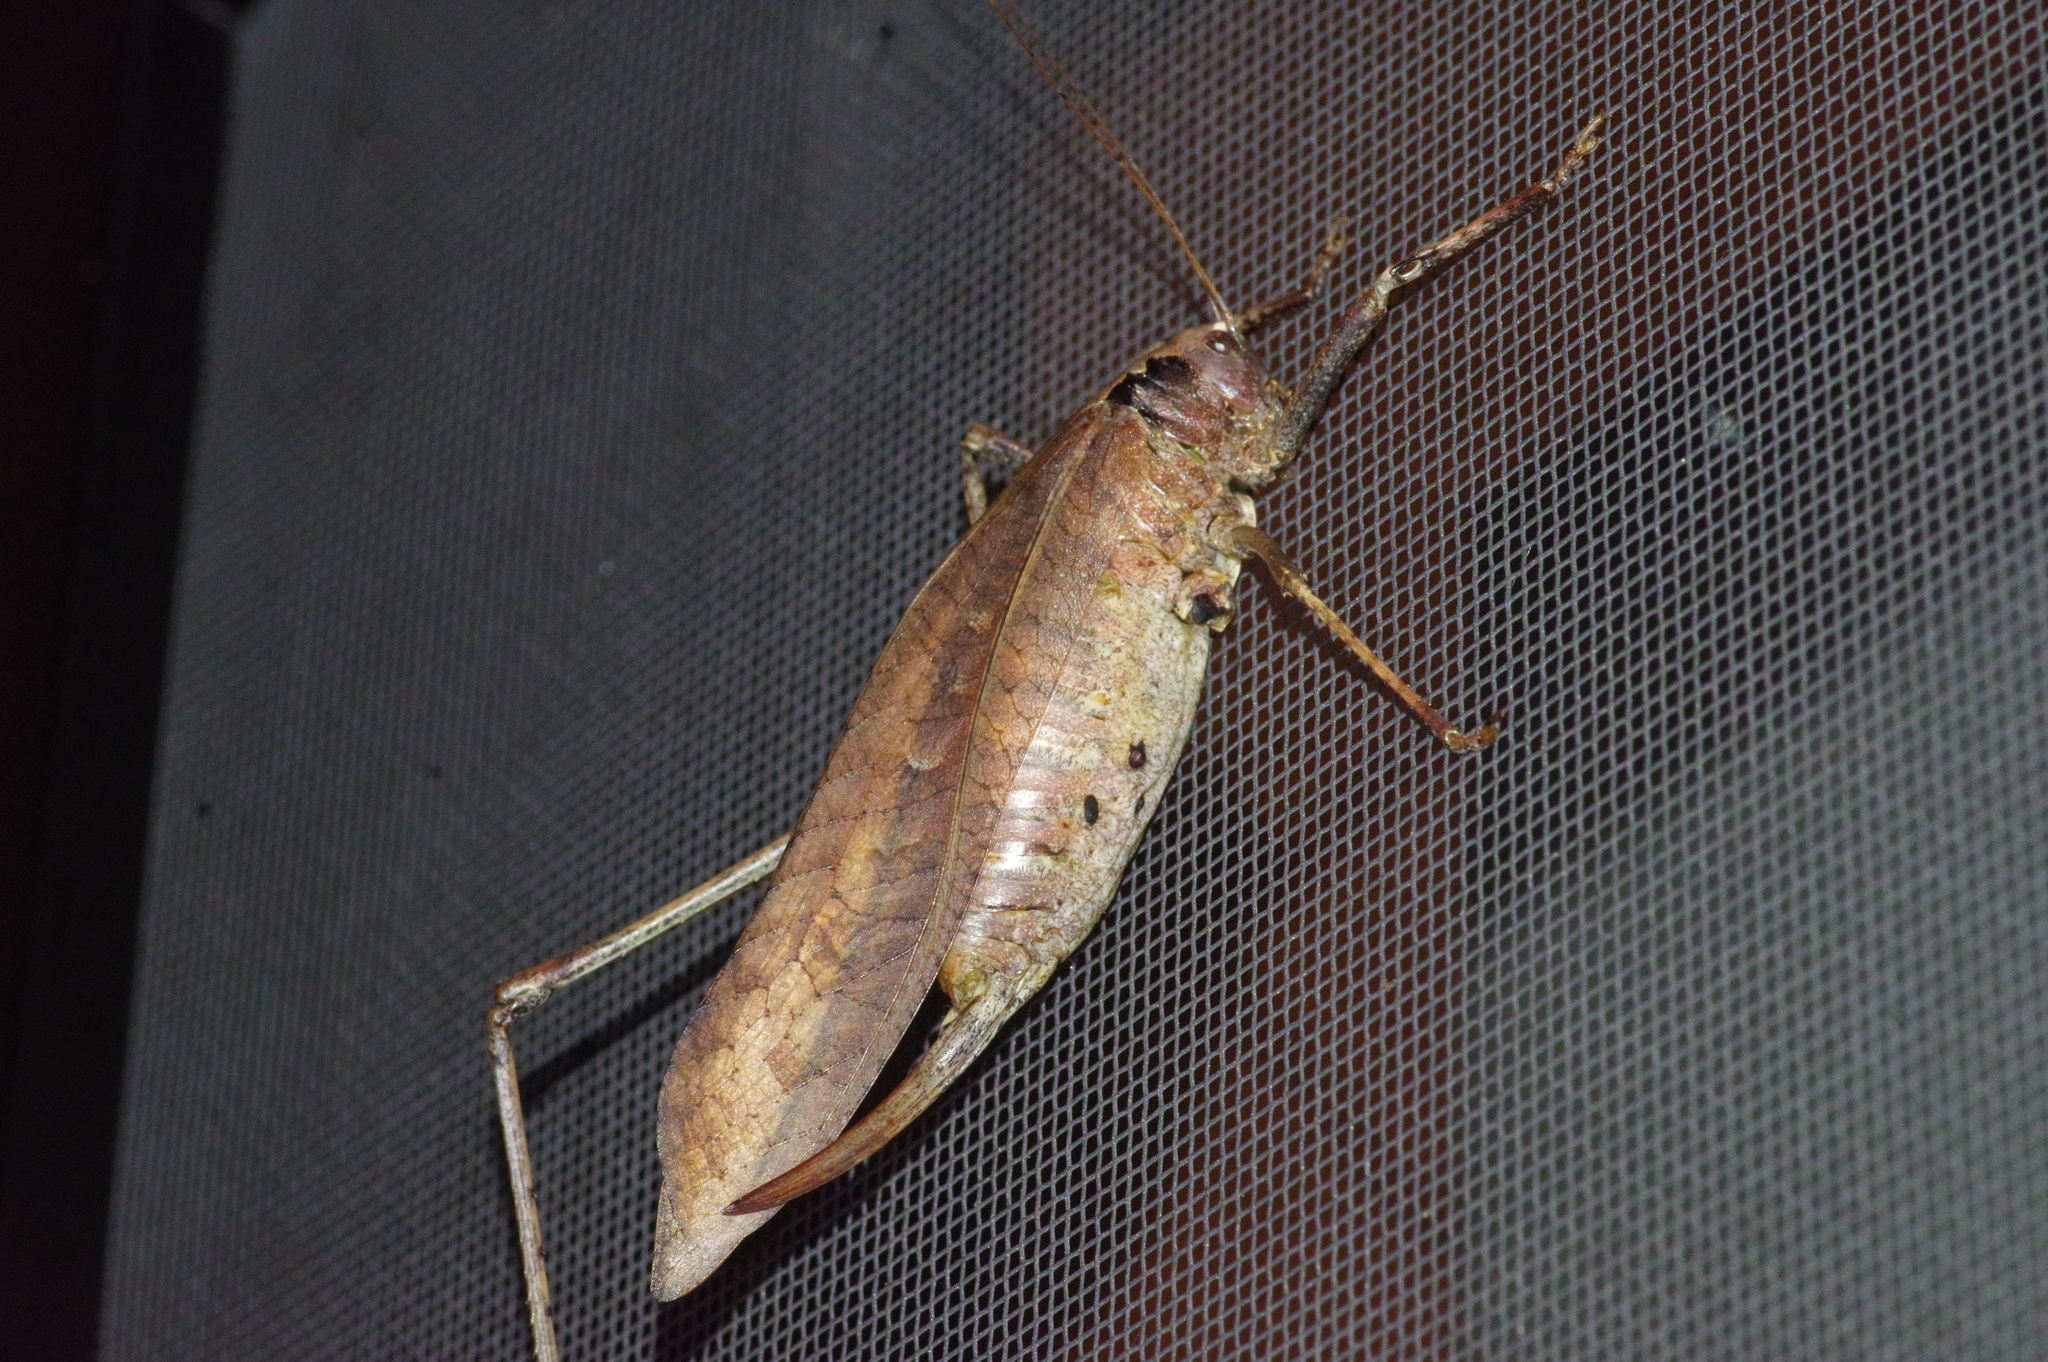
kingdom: Animalia
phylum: Arthropoda
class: Insecta
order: Orthoptera
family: Tettigoniidae
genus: Mecopoda
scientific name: Mecopoda elongata
